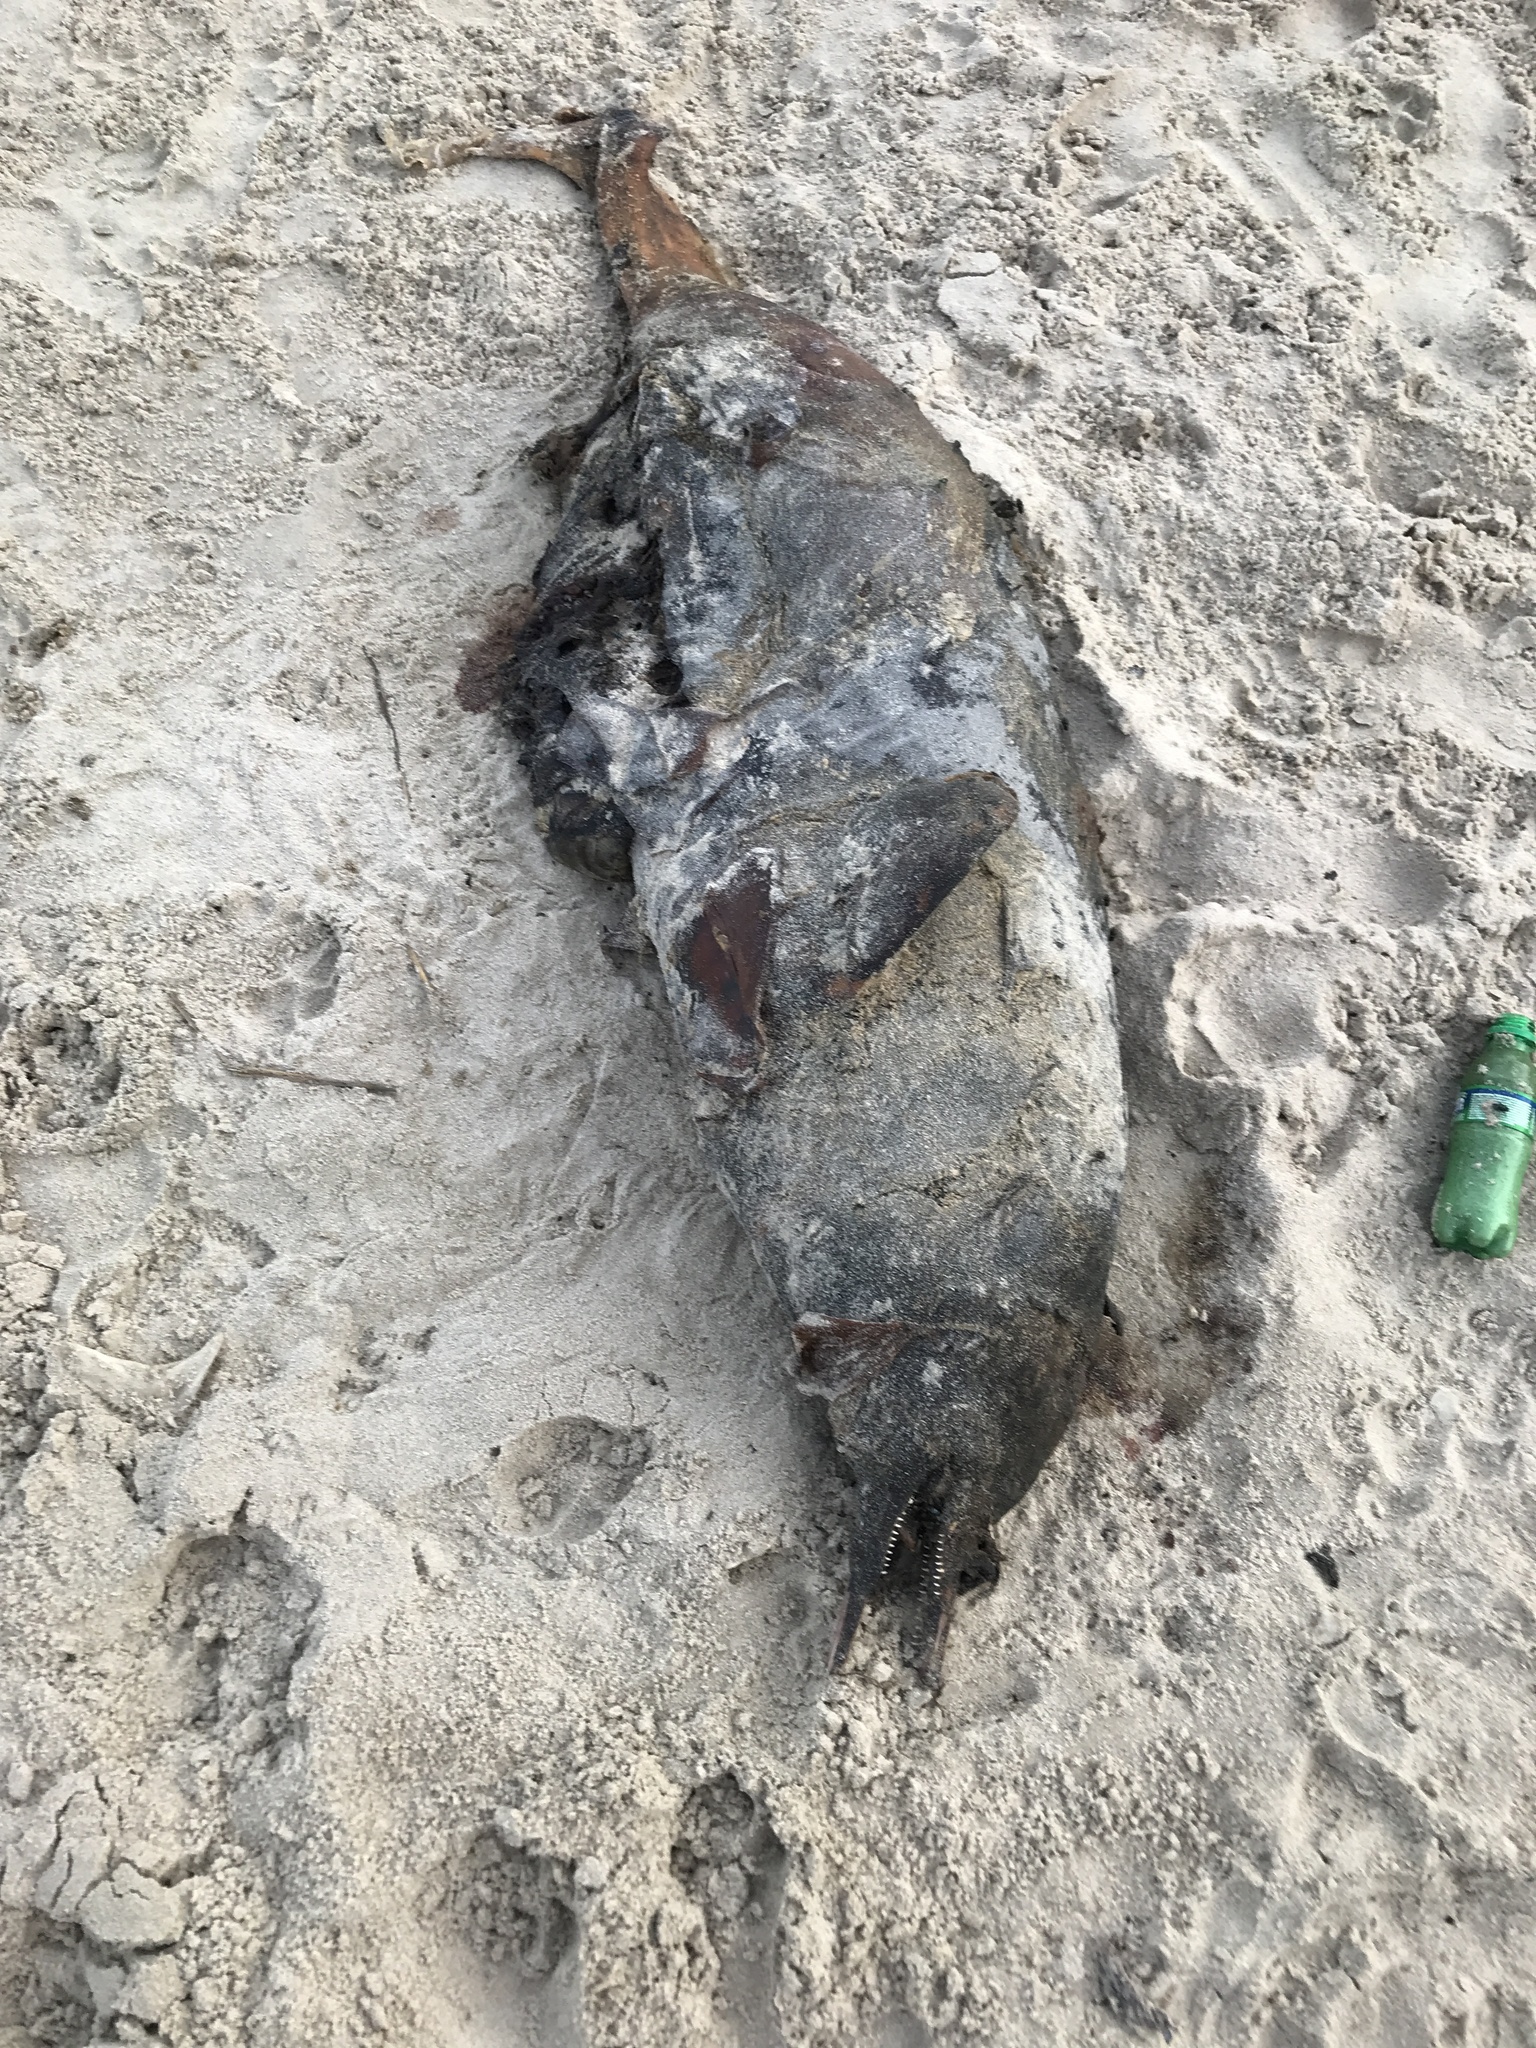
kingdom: Animalia
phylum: Chordata
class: Mammalia
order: Cetacea
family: Pontoporiidae
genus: Pontoporia
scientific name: Pontoporia blainvillei
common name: Franciscana
